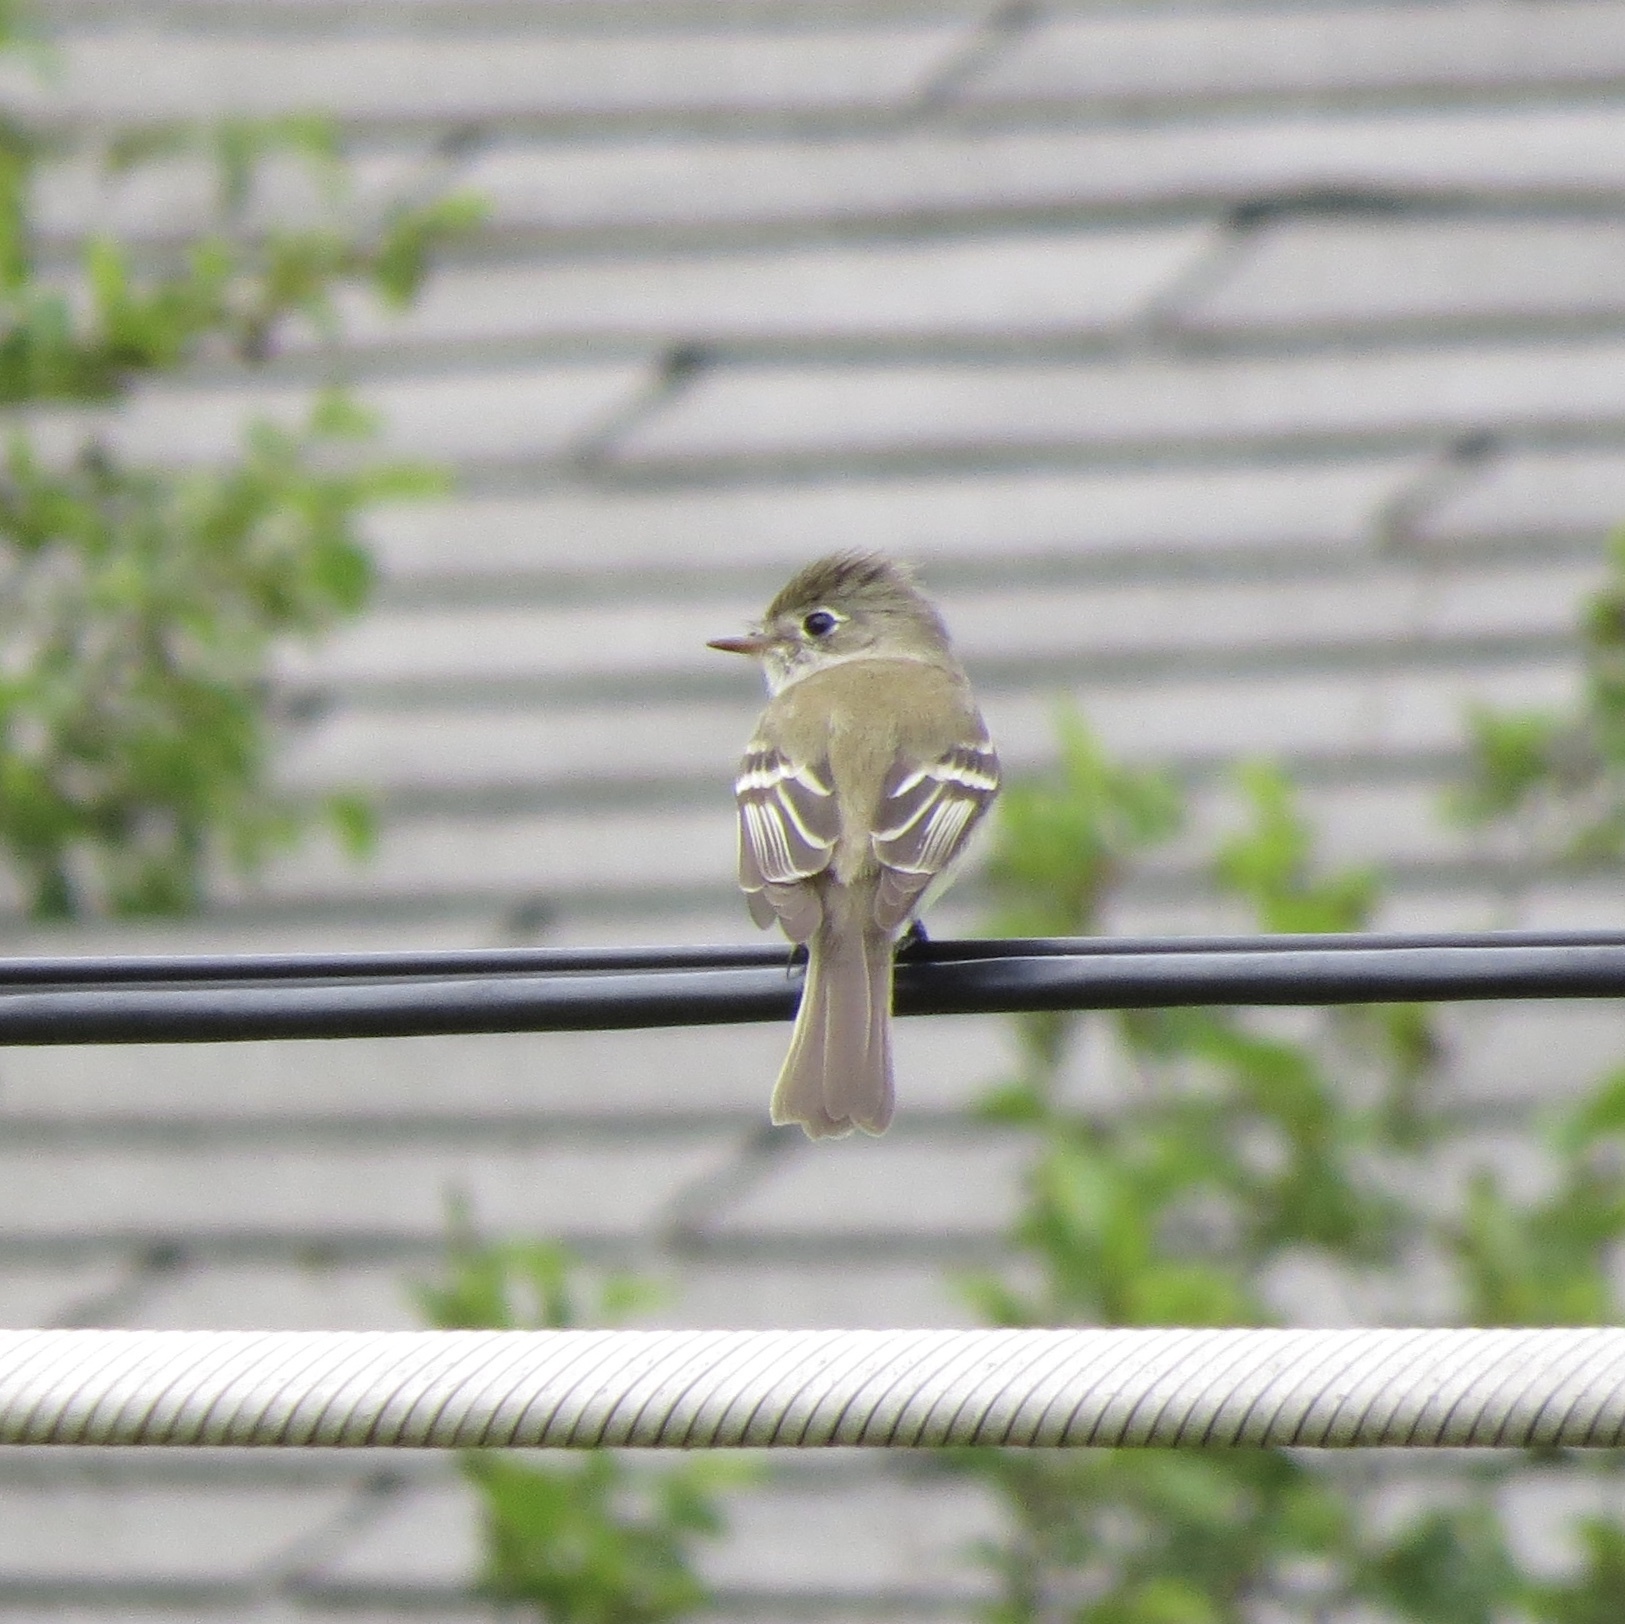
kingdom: Animalia
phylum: Chordata
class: Aves
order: Passeriformes
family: Tyrannidae
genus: Empidonax
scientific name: Empidonax minimus
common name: Least flycatcher
